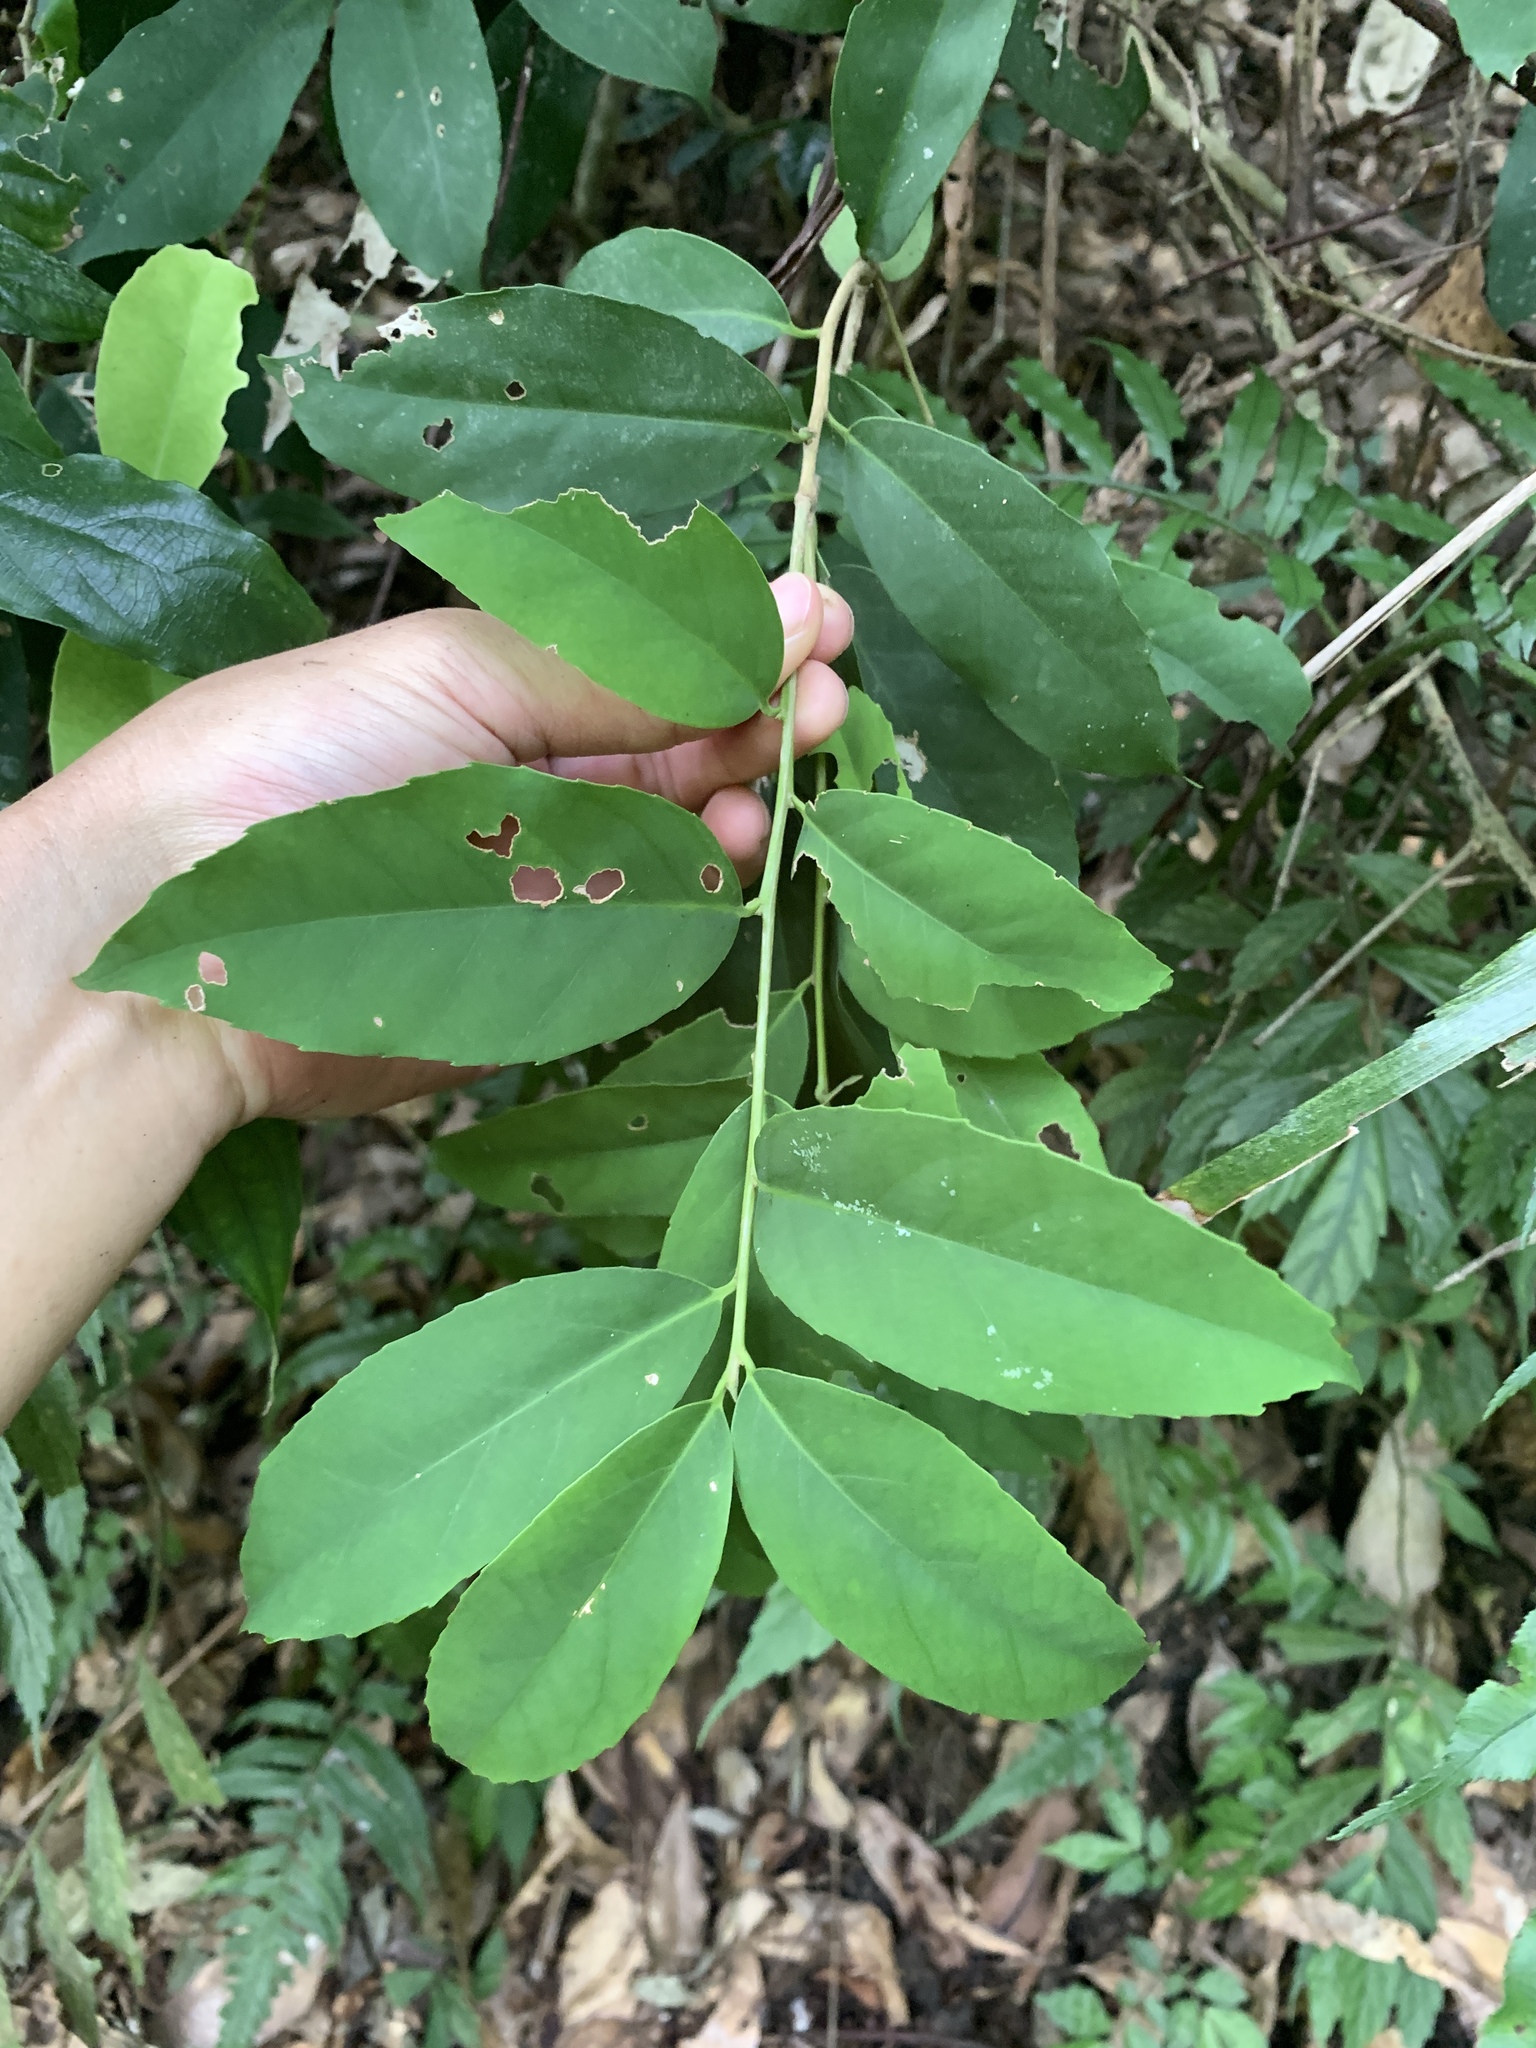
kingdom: Plantae
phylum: Tracheophyta
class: Magnoliopsida
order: Aquifoliales
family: Aquifoliaceae
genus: Ilex
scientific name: Ilex formosana
